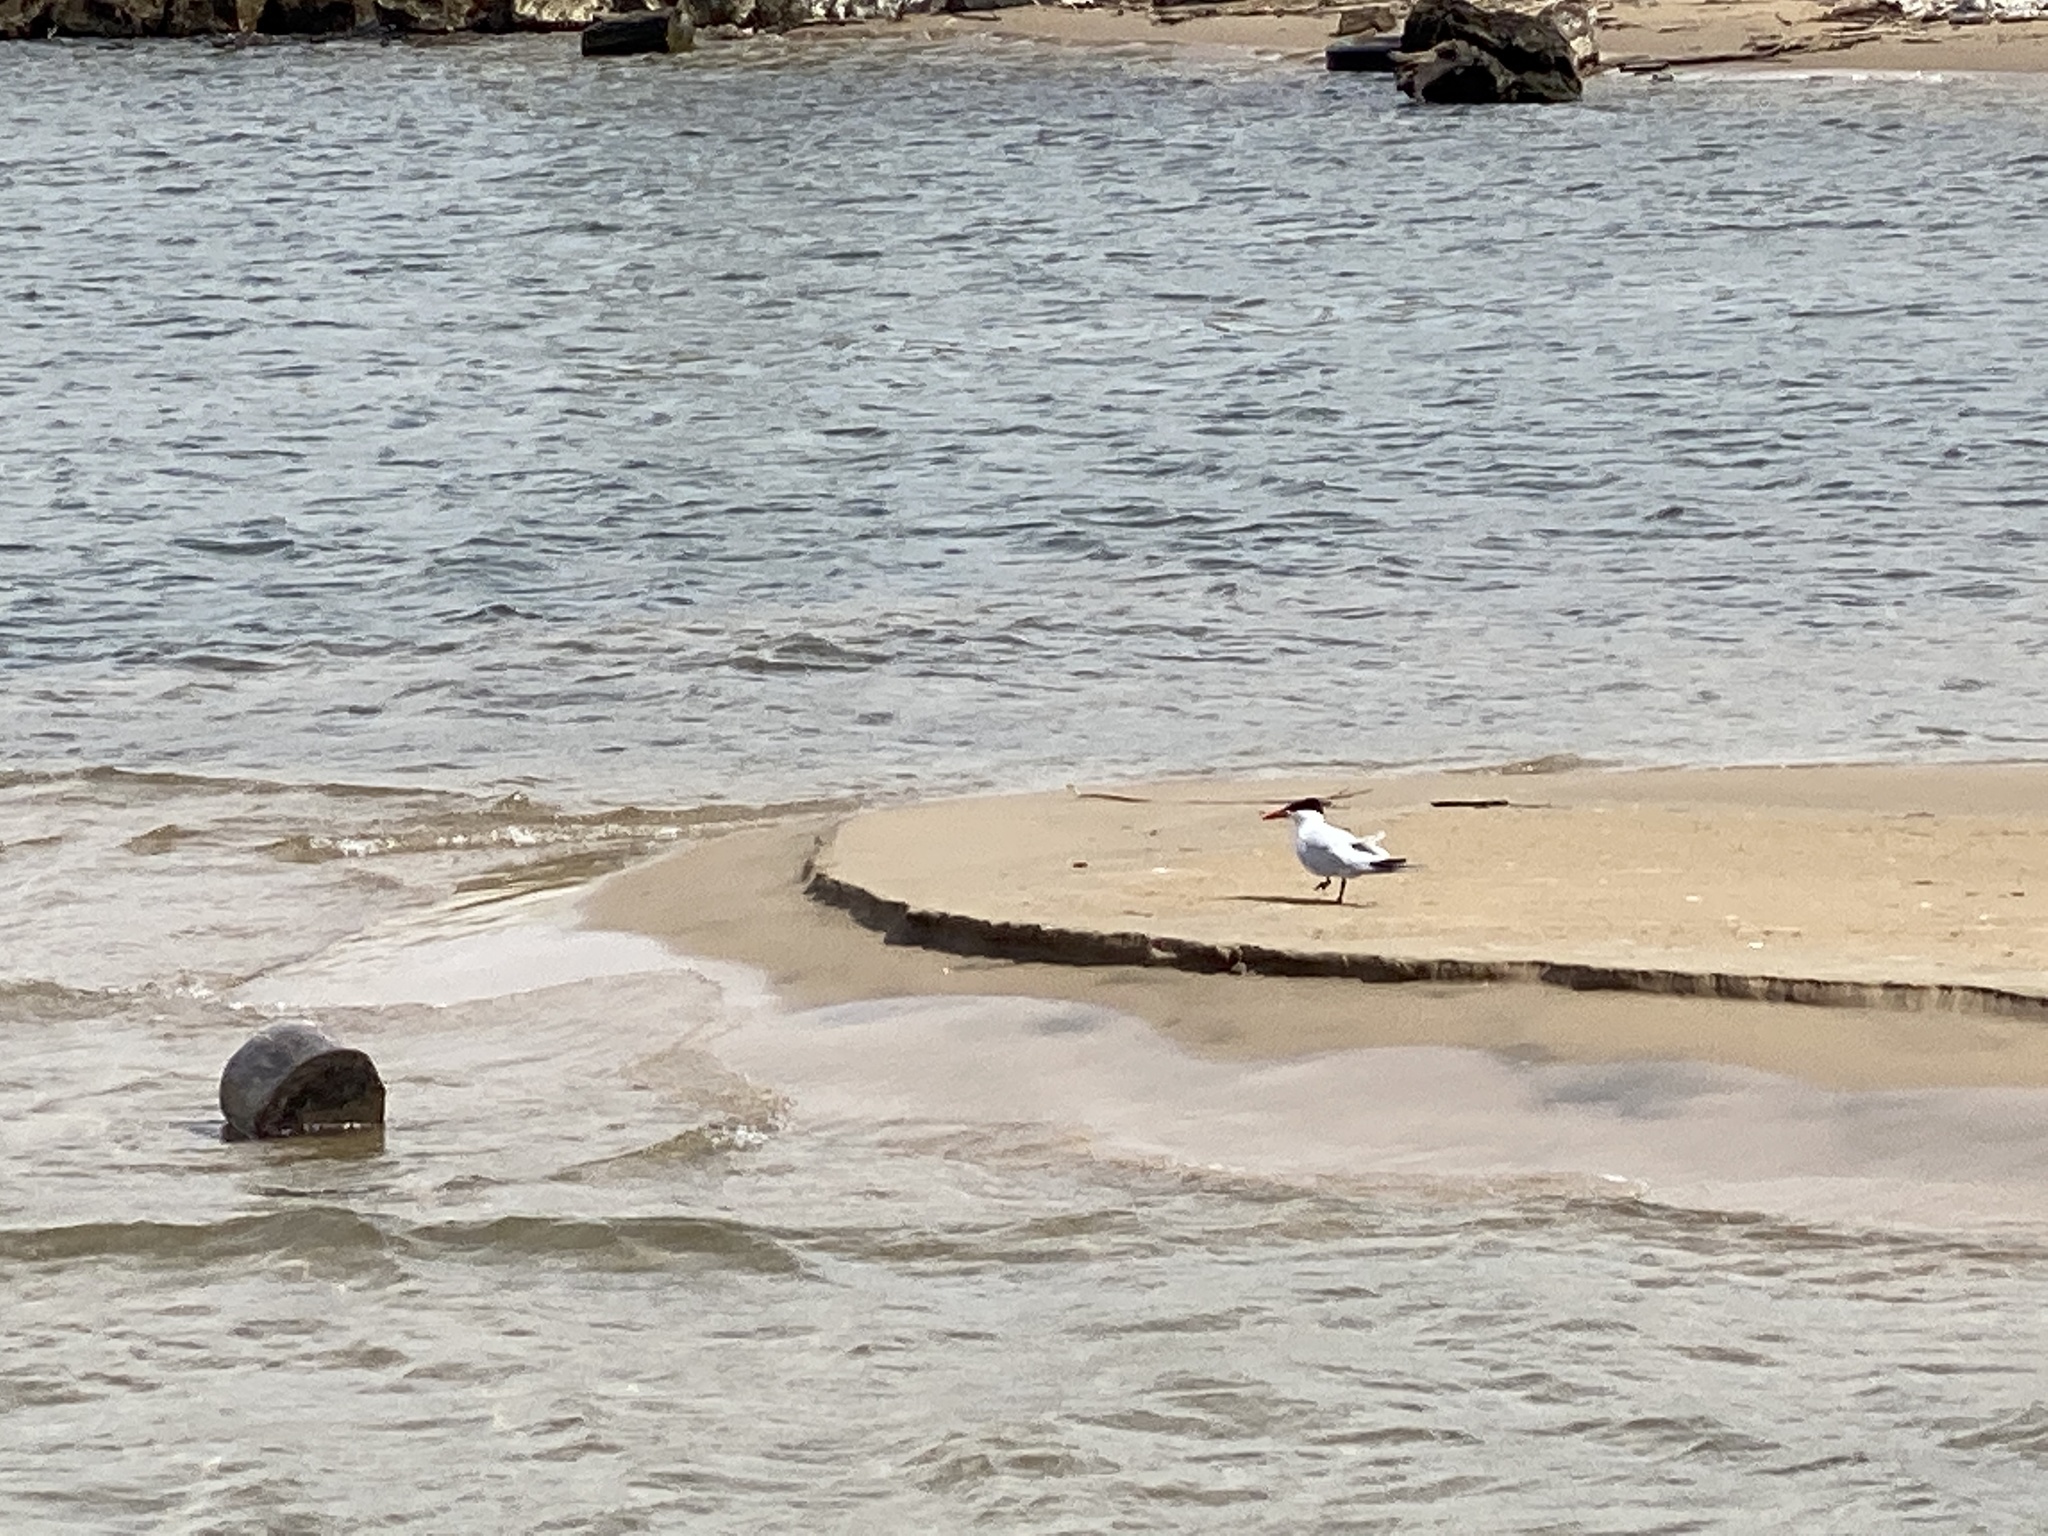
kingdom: Animalia
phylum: Chordata
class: Aves
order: Charadriiformes
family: Laridae
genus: Hydroprogne
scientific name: Hydroprogne caspia
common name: Caspian tern
